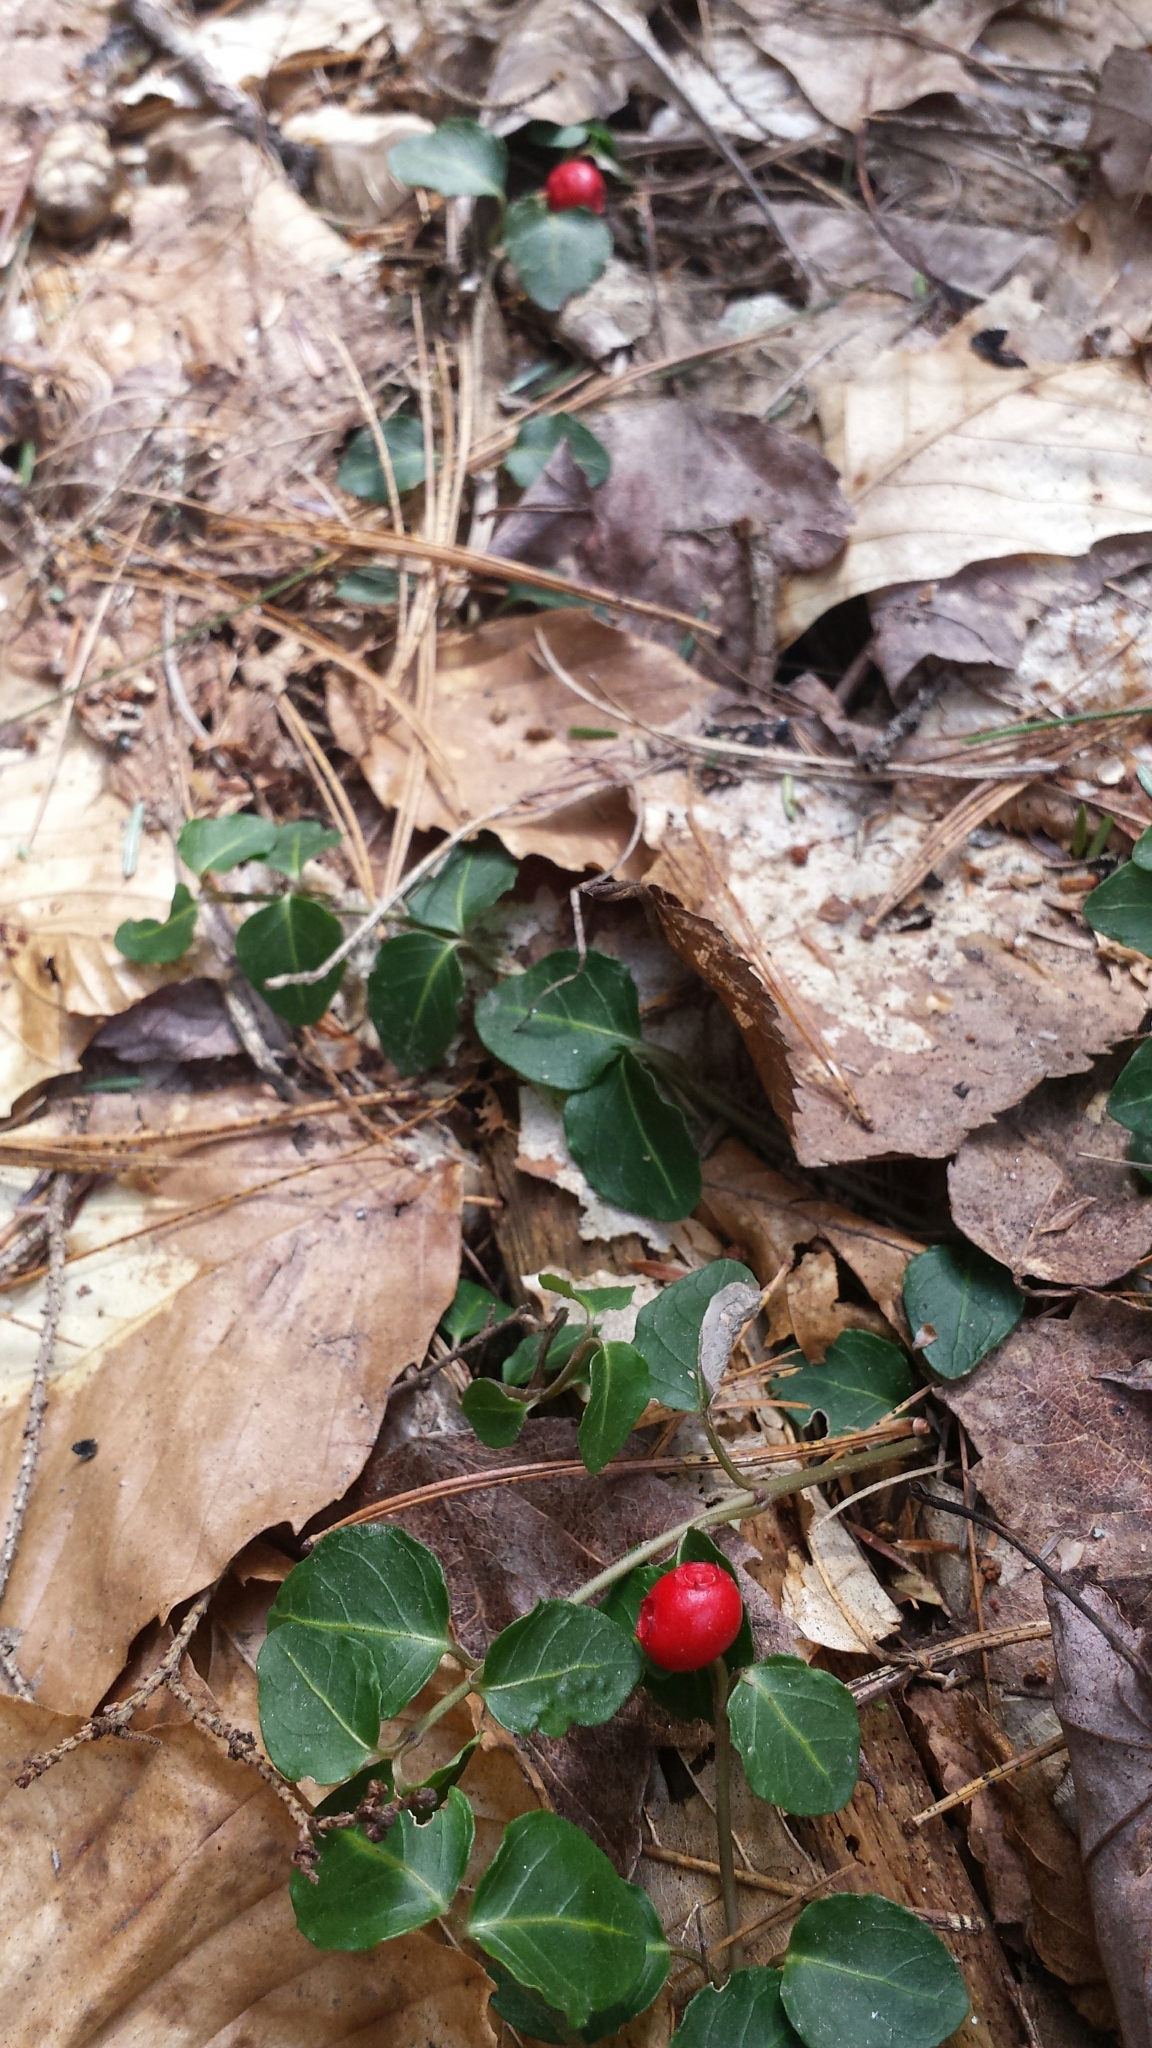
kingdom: Plantae
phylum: Tracheophyta
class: Magnoliopsida
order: Gentianales
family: Rubiaceae
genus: Mitchella
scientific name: Mitchella repens
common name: Partridge-berry
